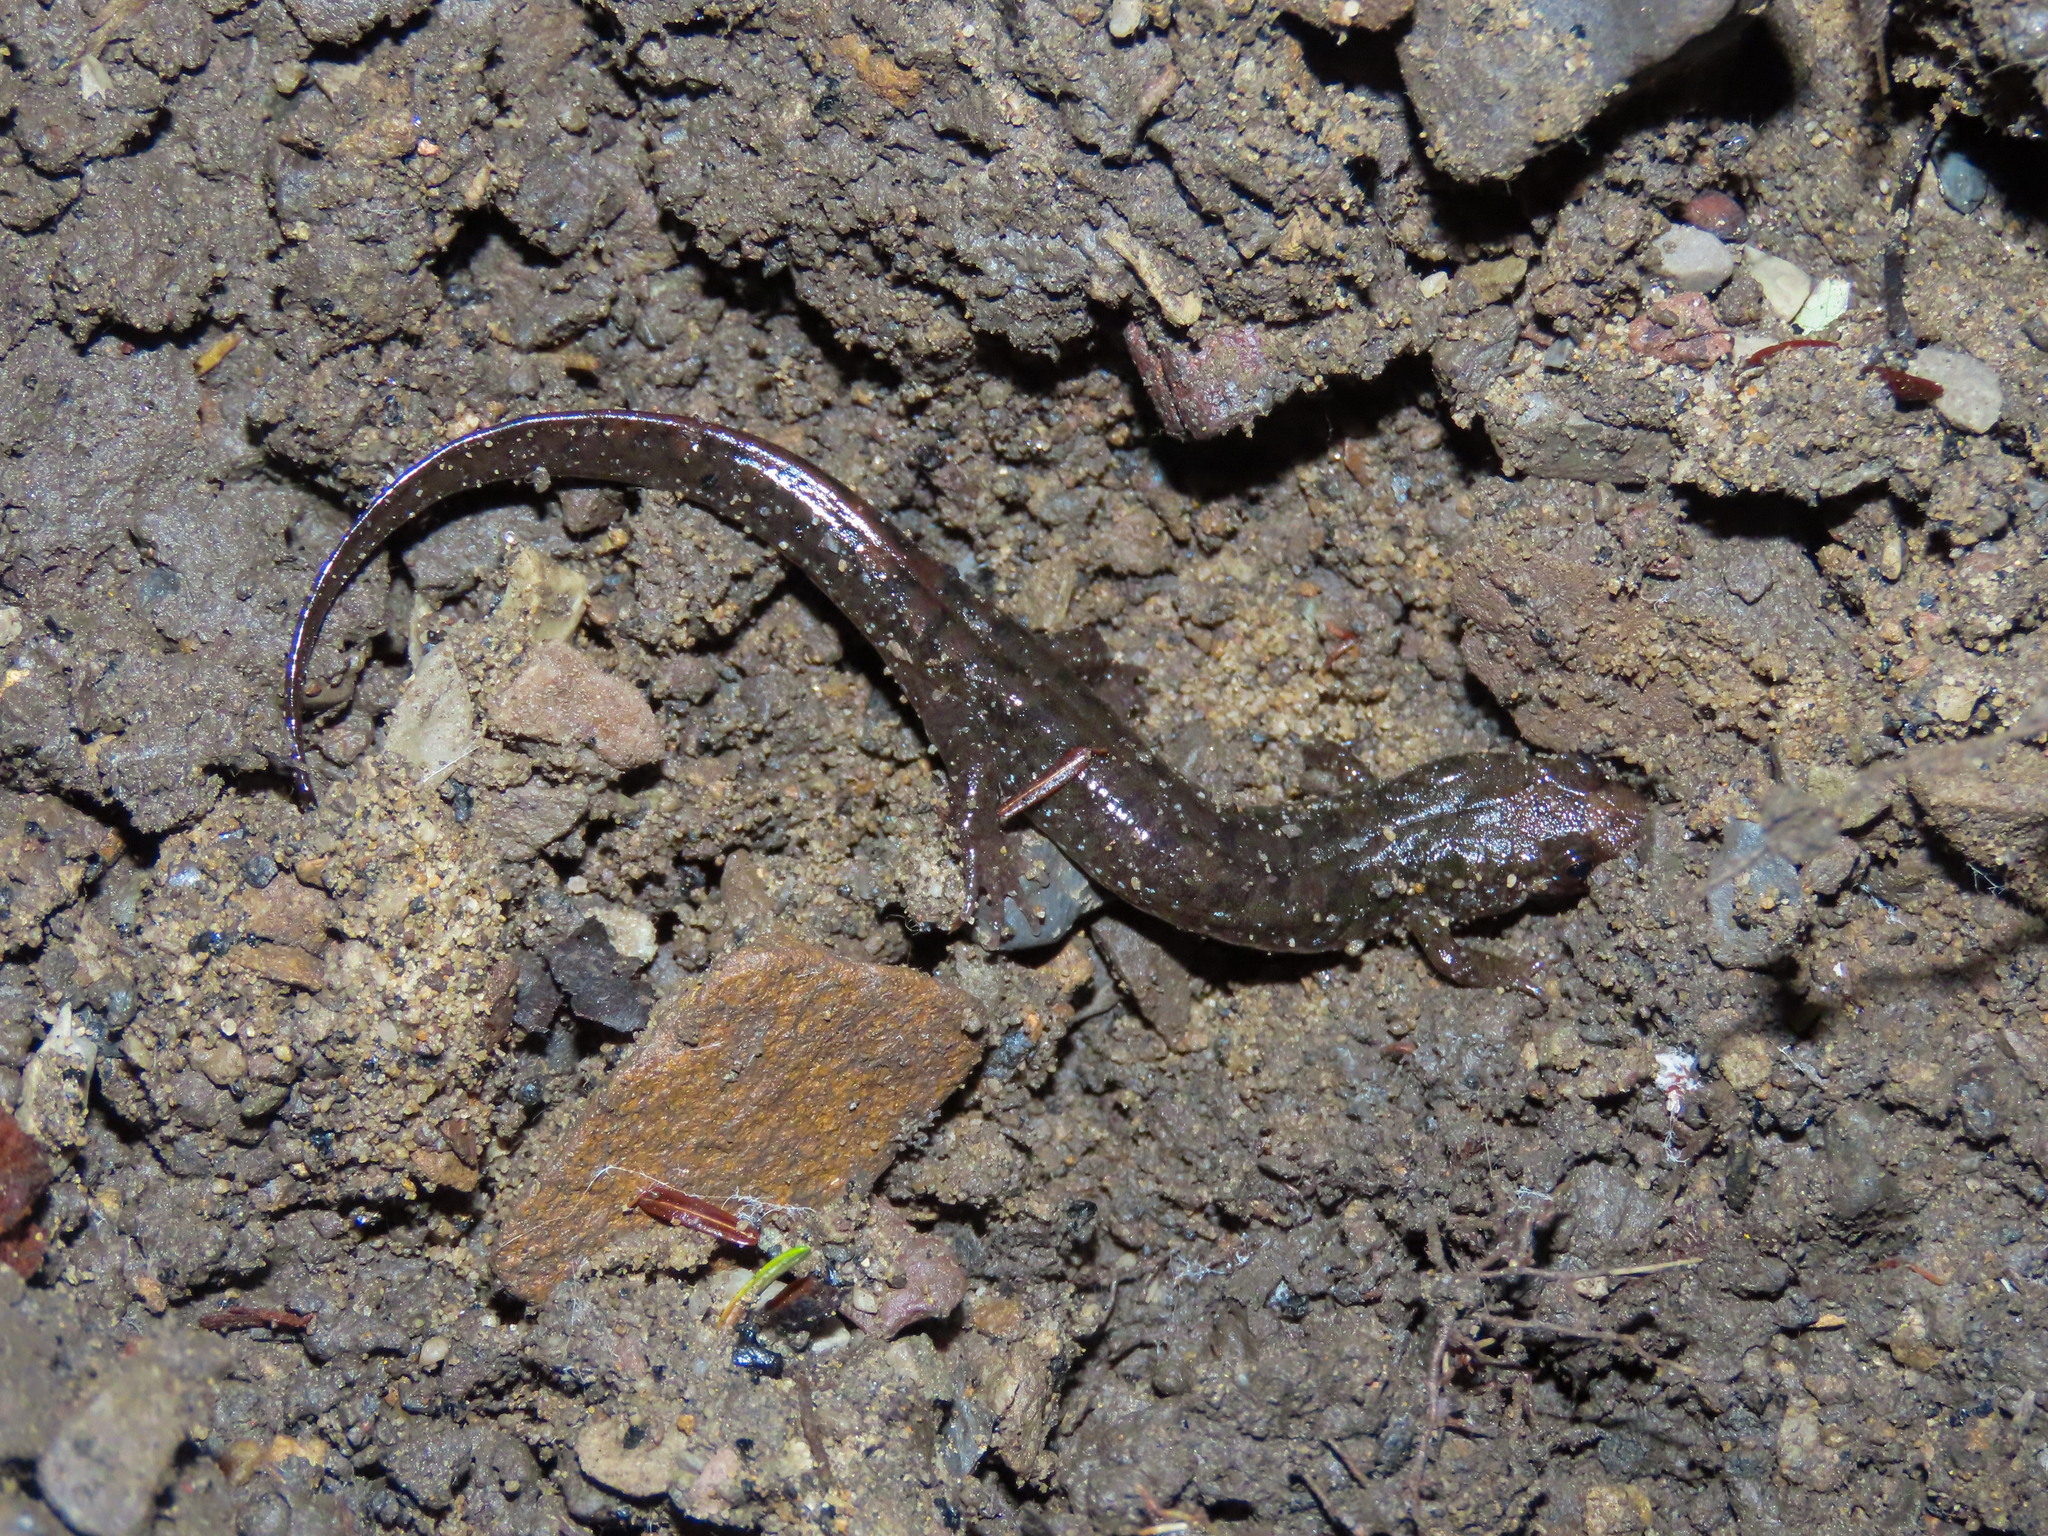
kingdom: Animalia
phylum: Chordata
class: Amphibia
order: Caudata
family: Plethodontidae
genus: Desmognathus
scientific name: Desmognathus monticola
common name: Seal salamander
